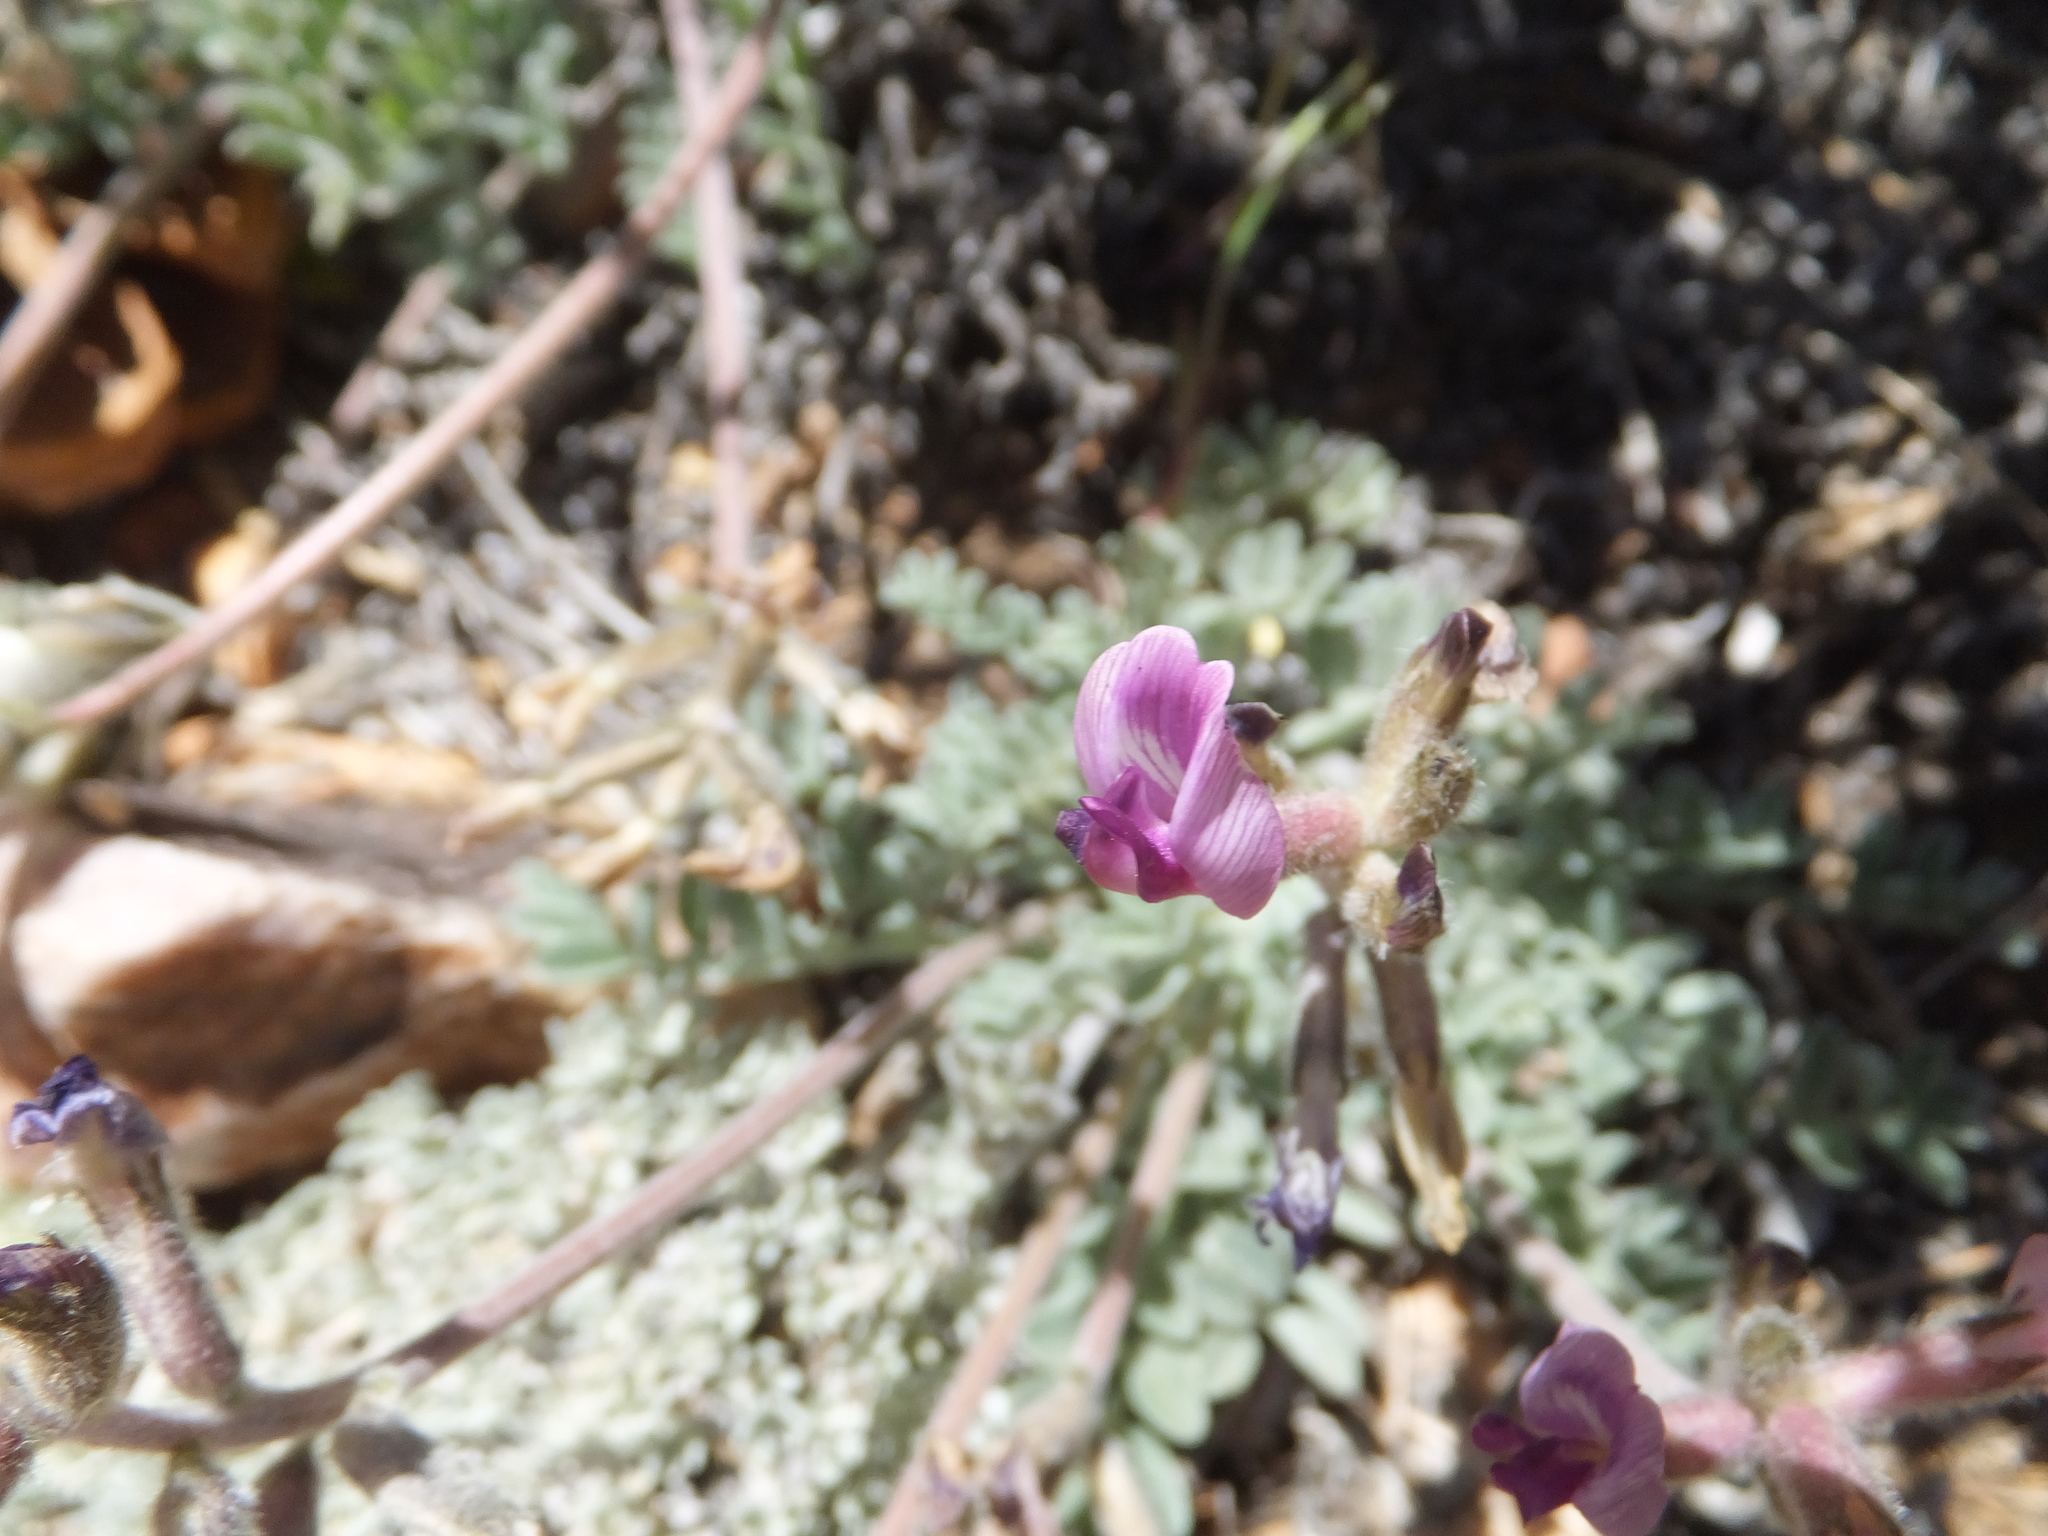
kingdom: Plantae
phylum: Tracheophyta
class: Magnoliopsida
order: Fabales
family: Fabaceae
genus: Astragalus
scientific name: Astragalus leucolobus
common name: Big bear valley woollypod
